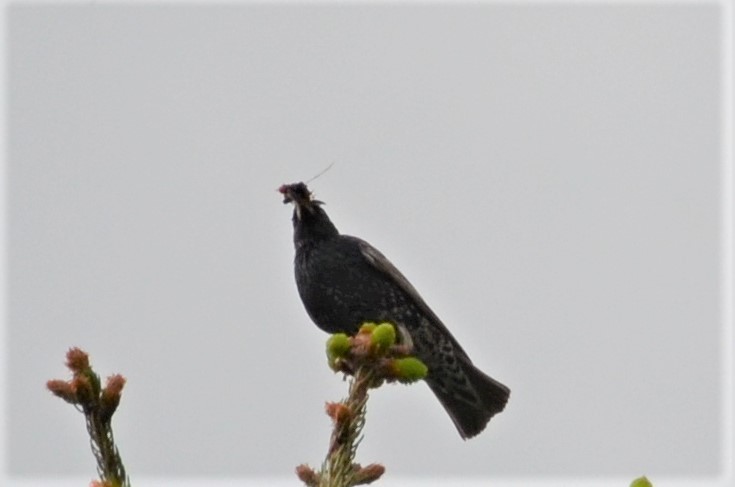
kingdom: Animalia
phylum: Chordata
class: Aves
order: Passeriformes
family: Sturnidae
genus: Sturnus
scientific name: Sturnus vulgaris
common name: Common starling
